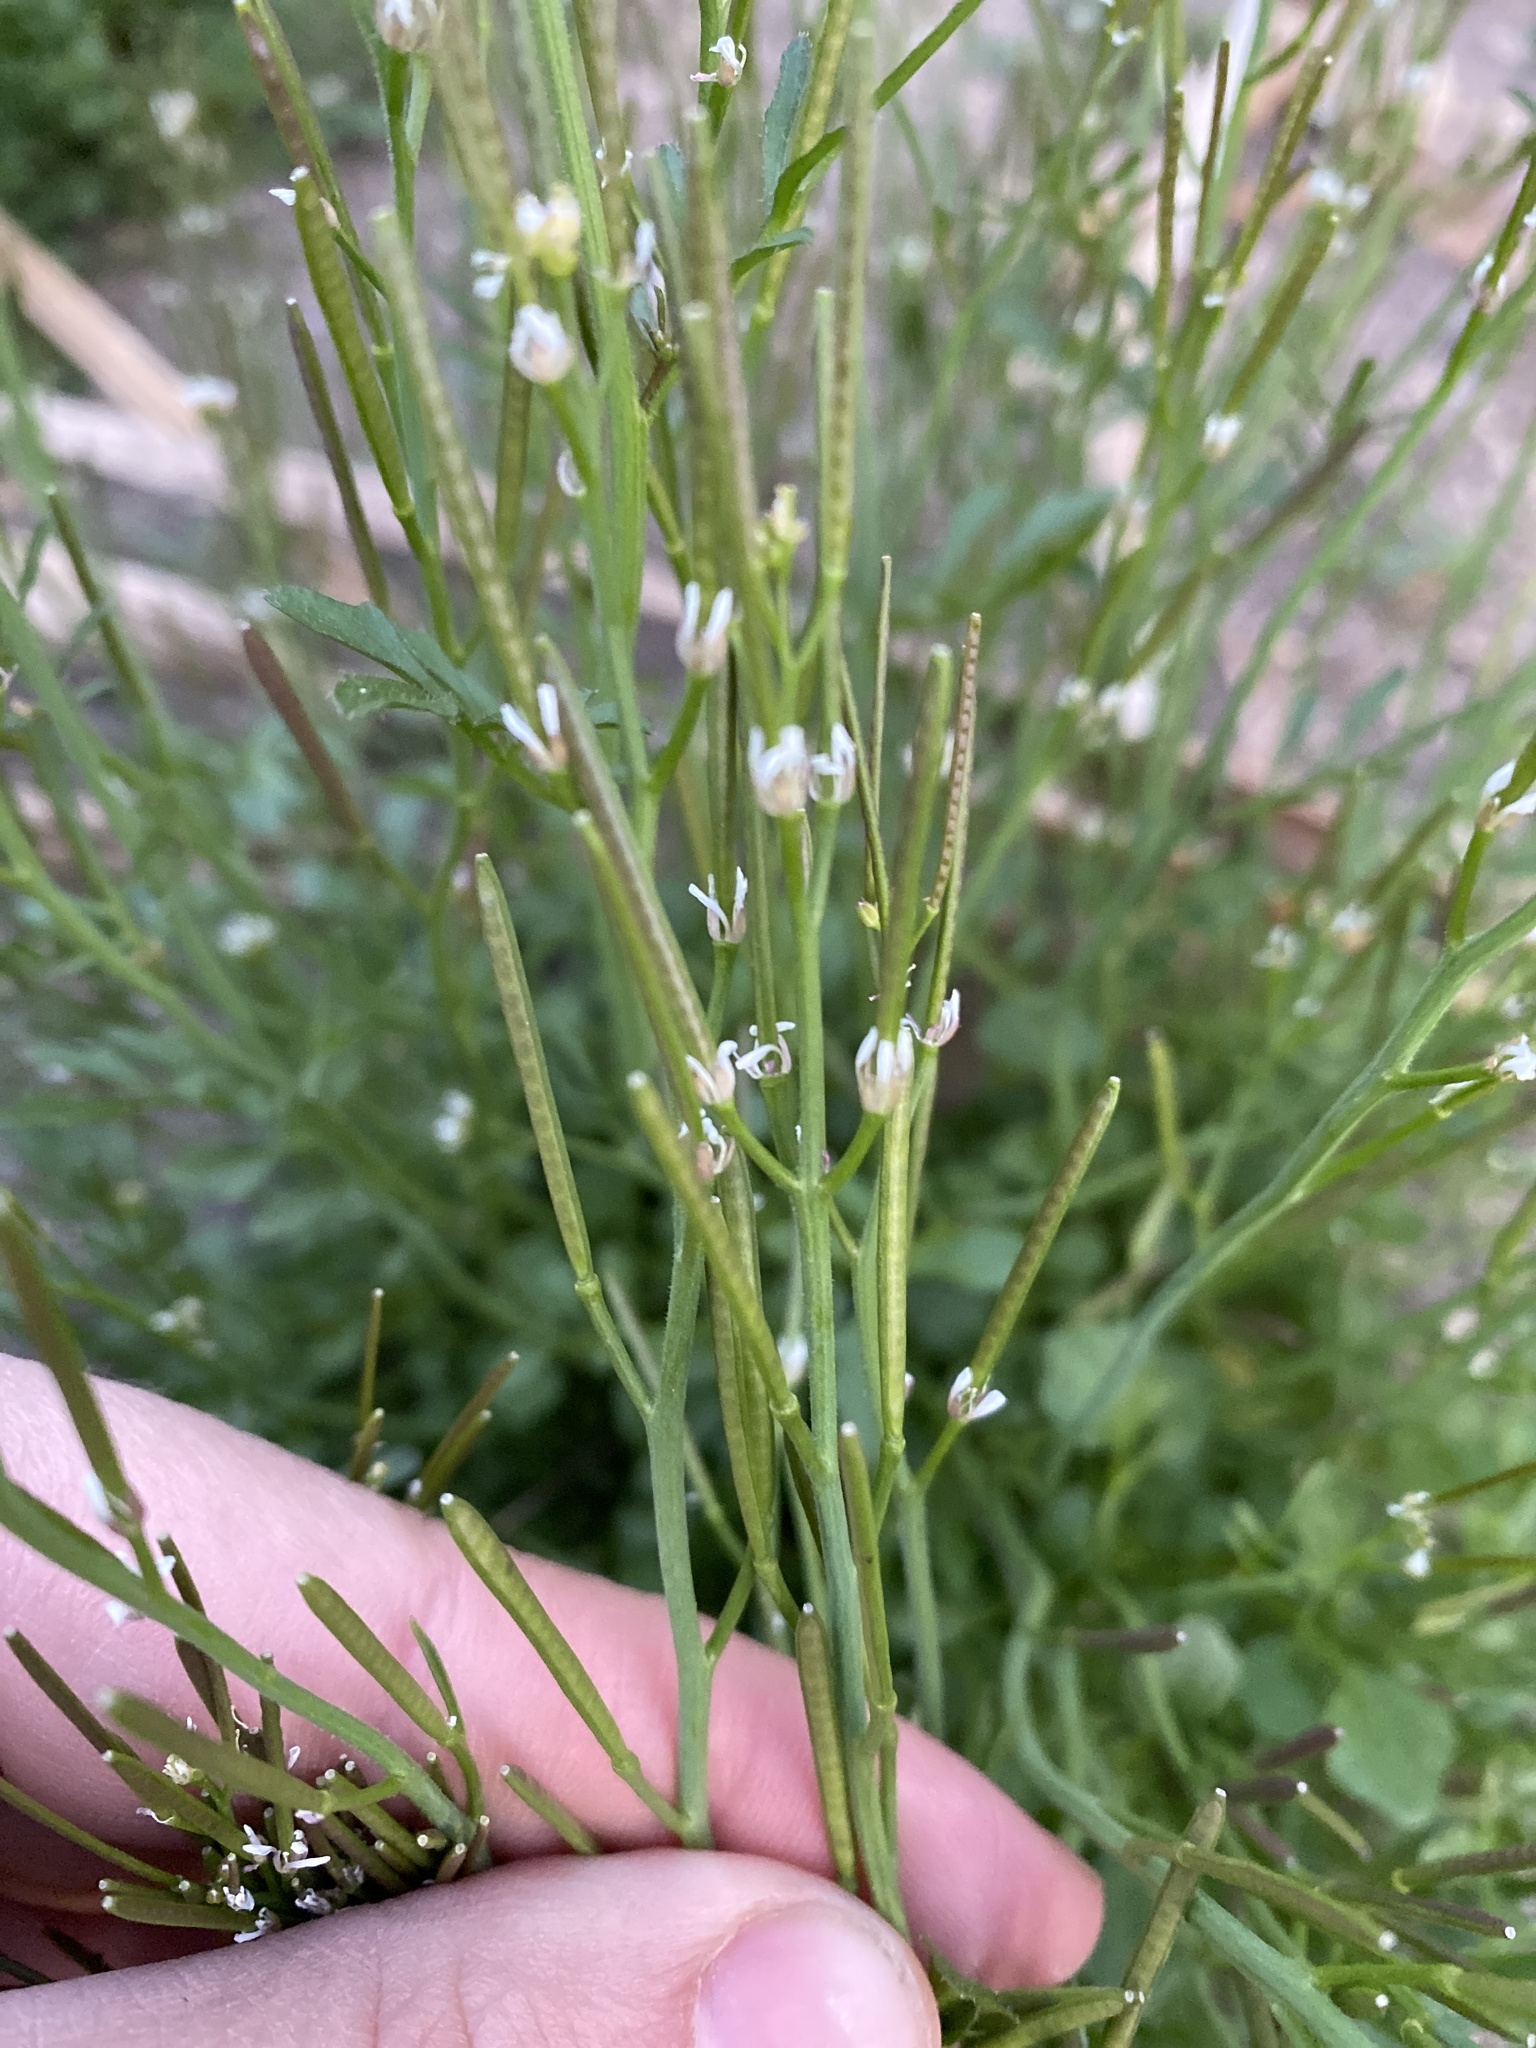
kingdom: Plantae
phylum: Tracheophyta
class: Magnoliopsida
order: Brassicales
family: Brassicaceae
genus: Cardamine
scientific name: Cardamine hirsuta
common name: Hairy bittercress
